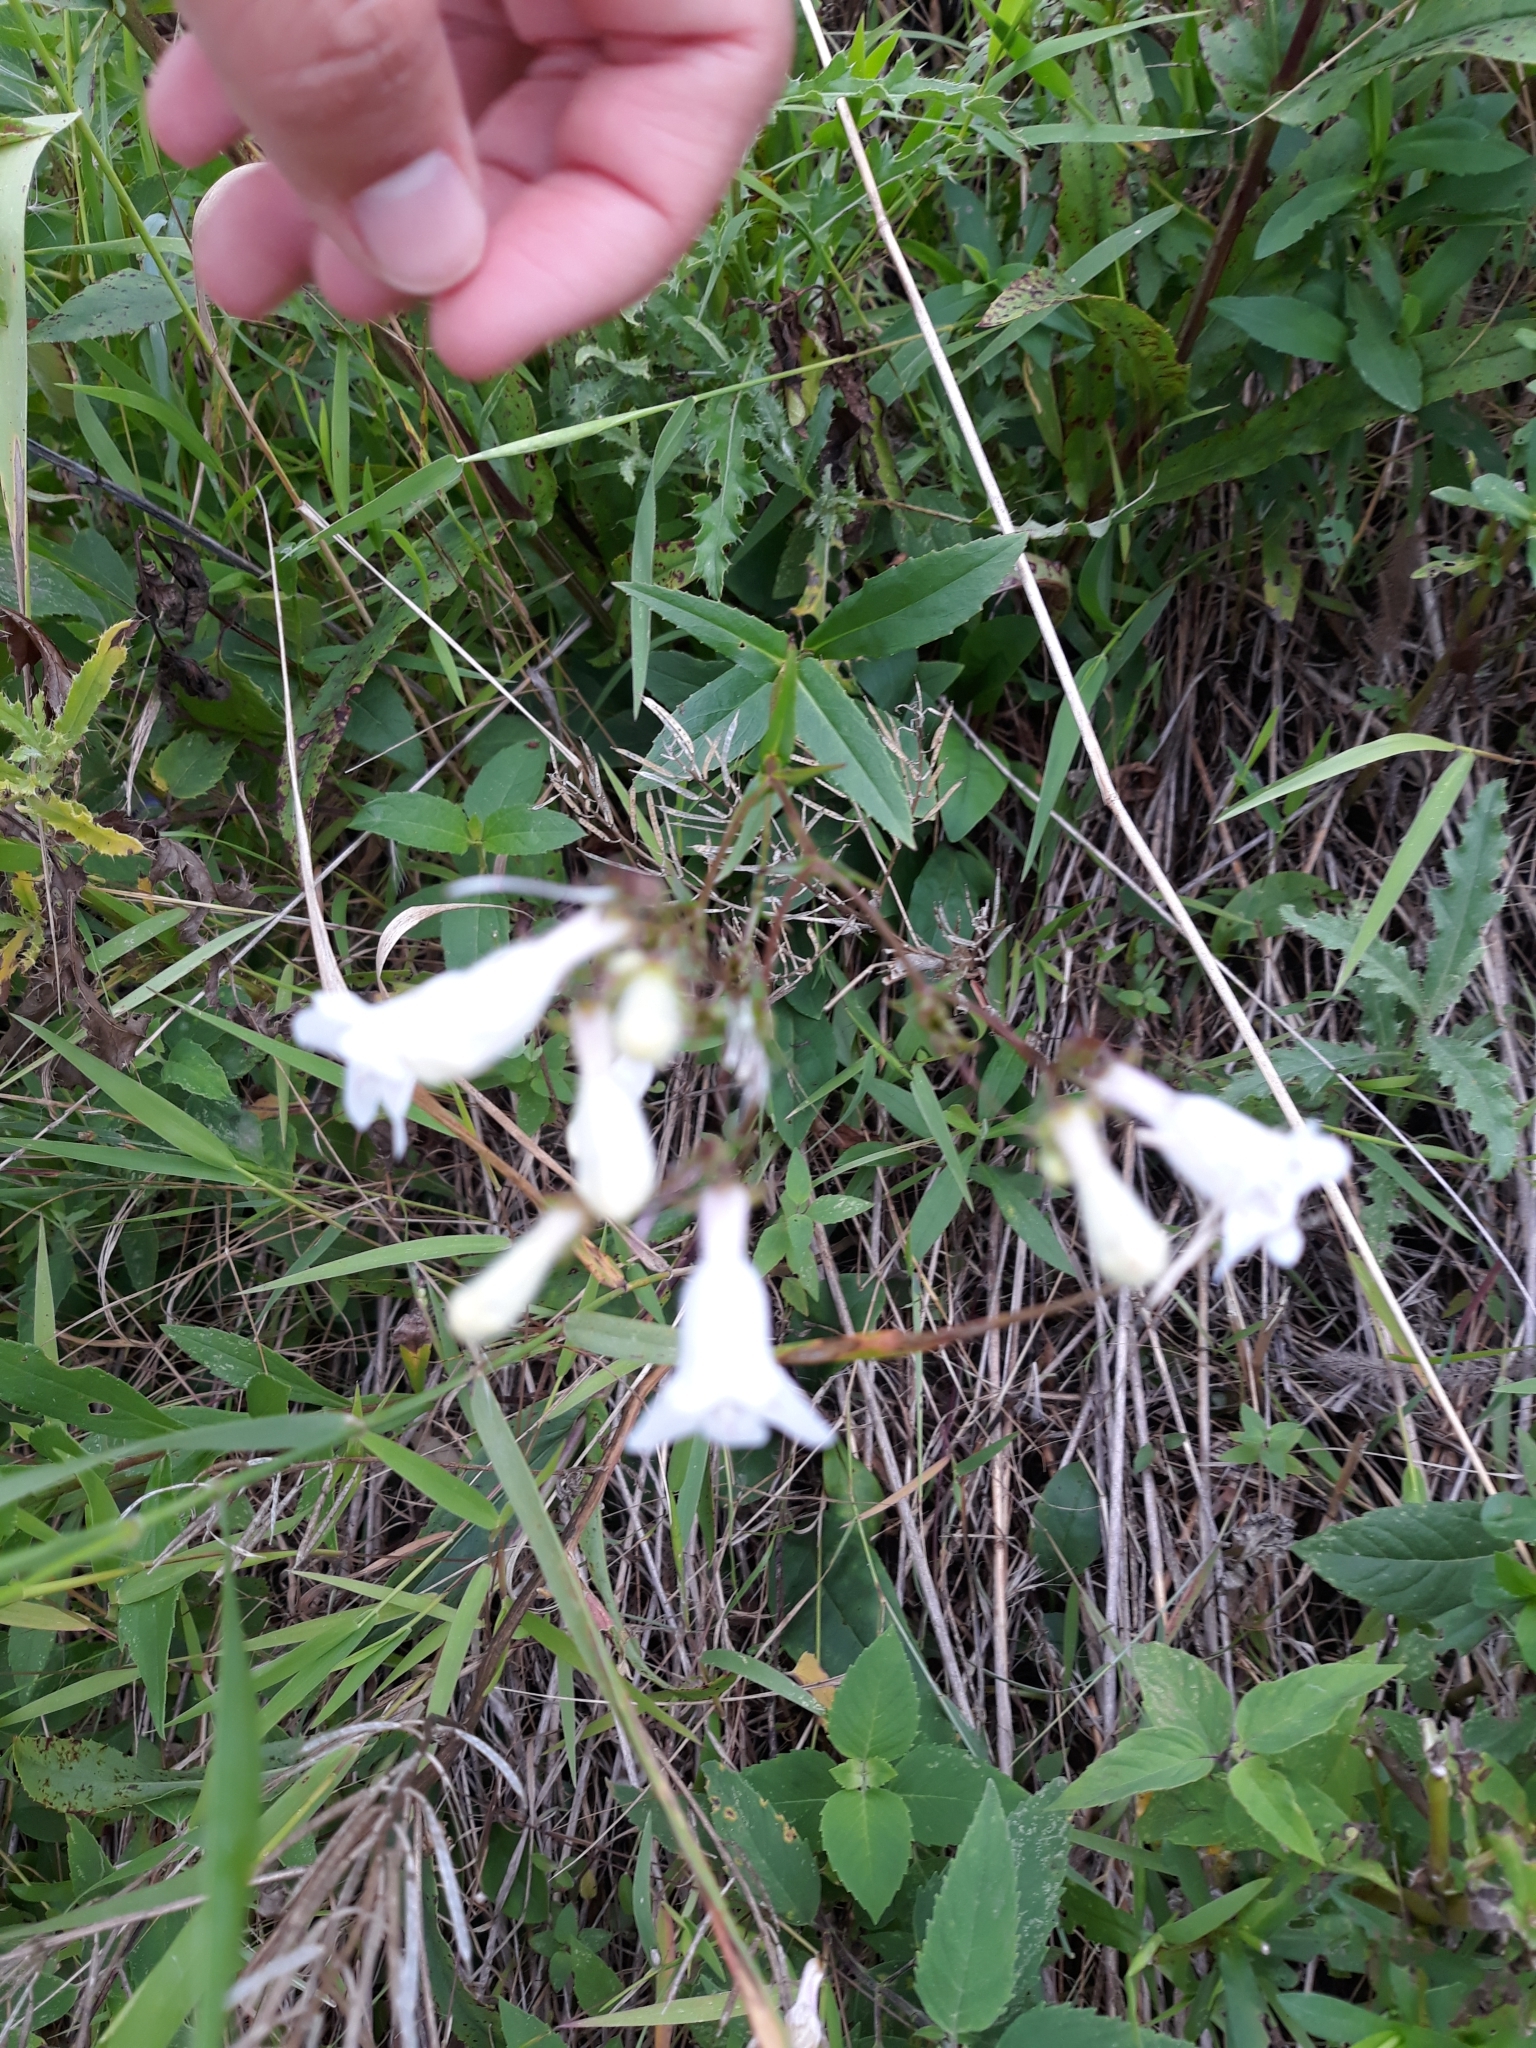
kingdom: Plantae
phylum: Tracheophyta
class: Magnoliopsida
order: Lamiales
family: Plantaginaceae
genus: Penstemon
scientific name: Penstemon digitalis
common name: Foxglove beardtongue
